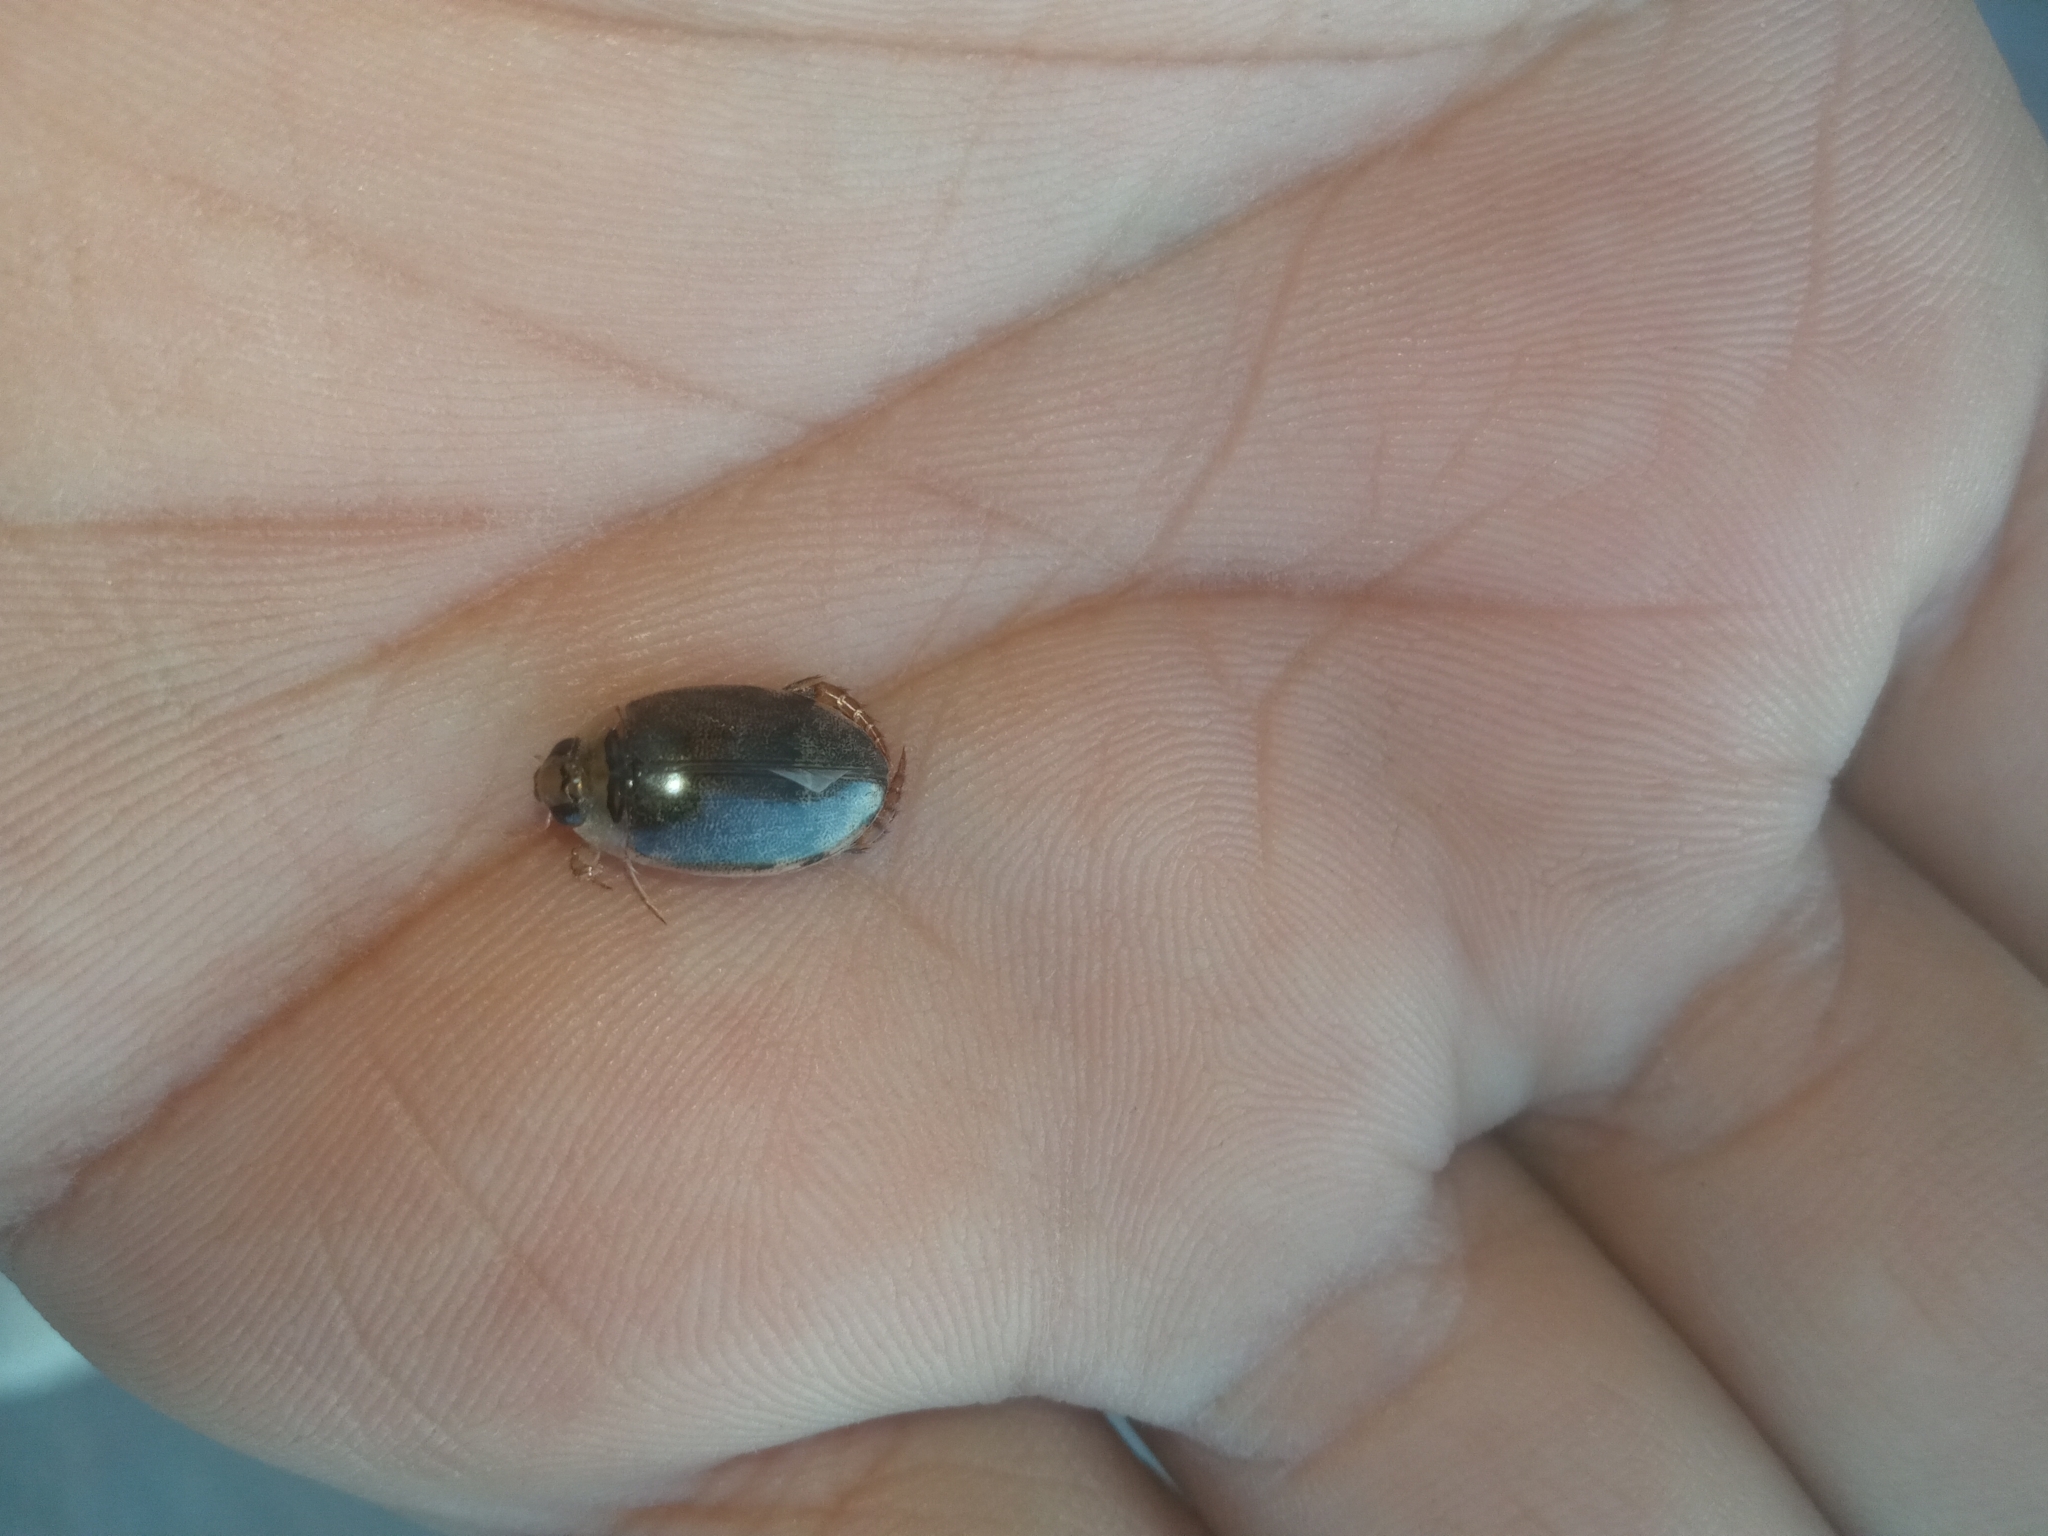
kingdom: Animalia
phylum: Arthropoda
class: Insecta
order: Coleoptera
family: Dytiscidae
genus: Thermonectus
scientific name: Thermonectus sibleyi
